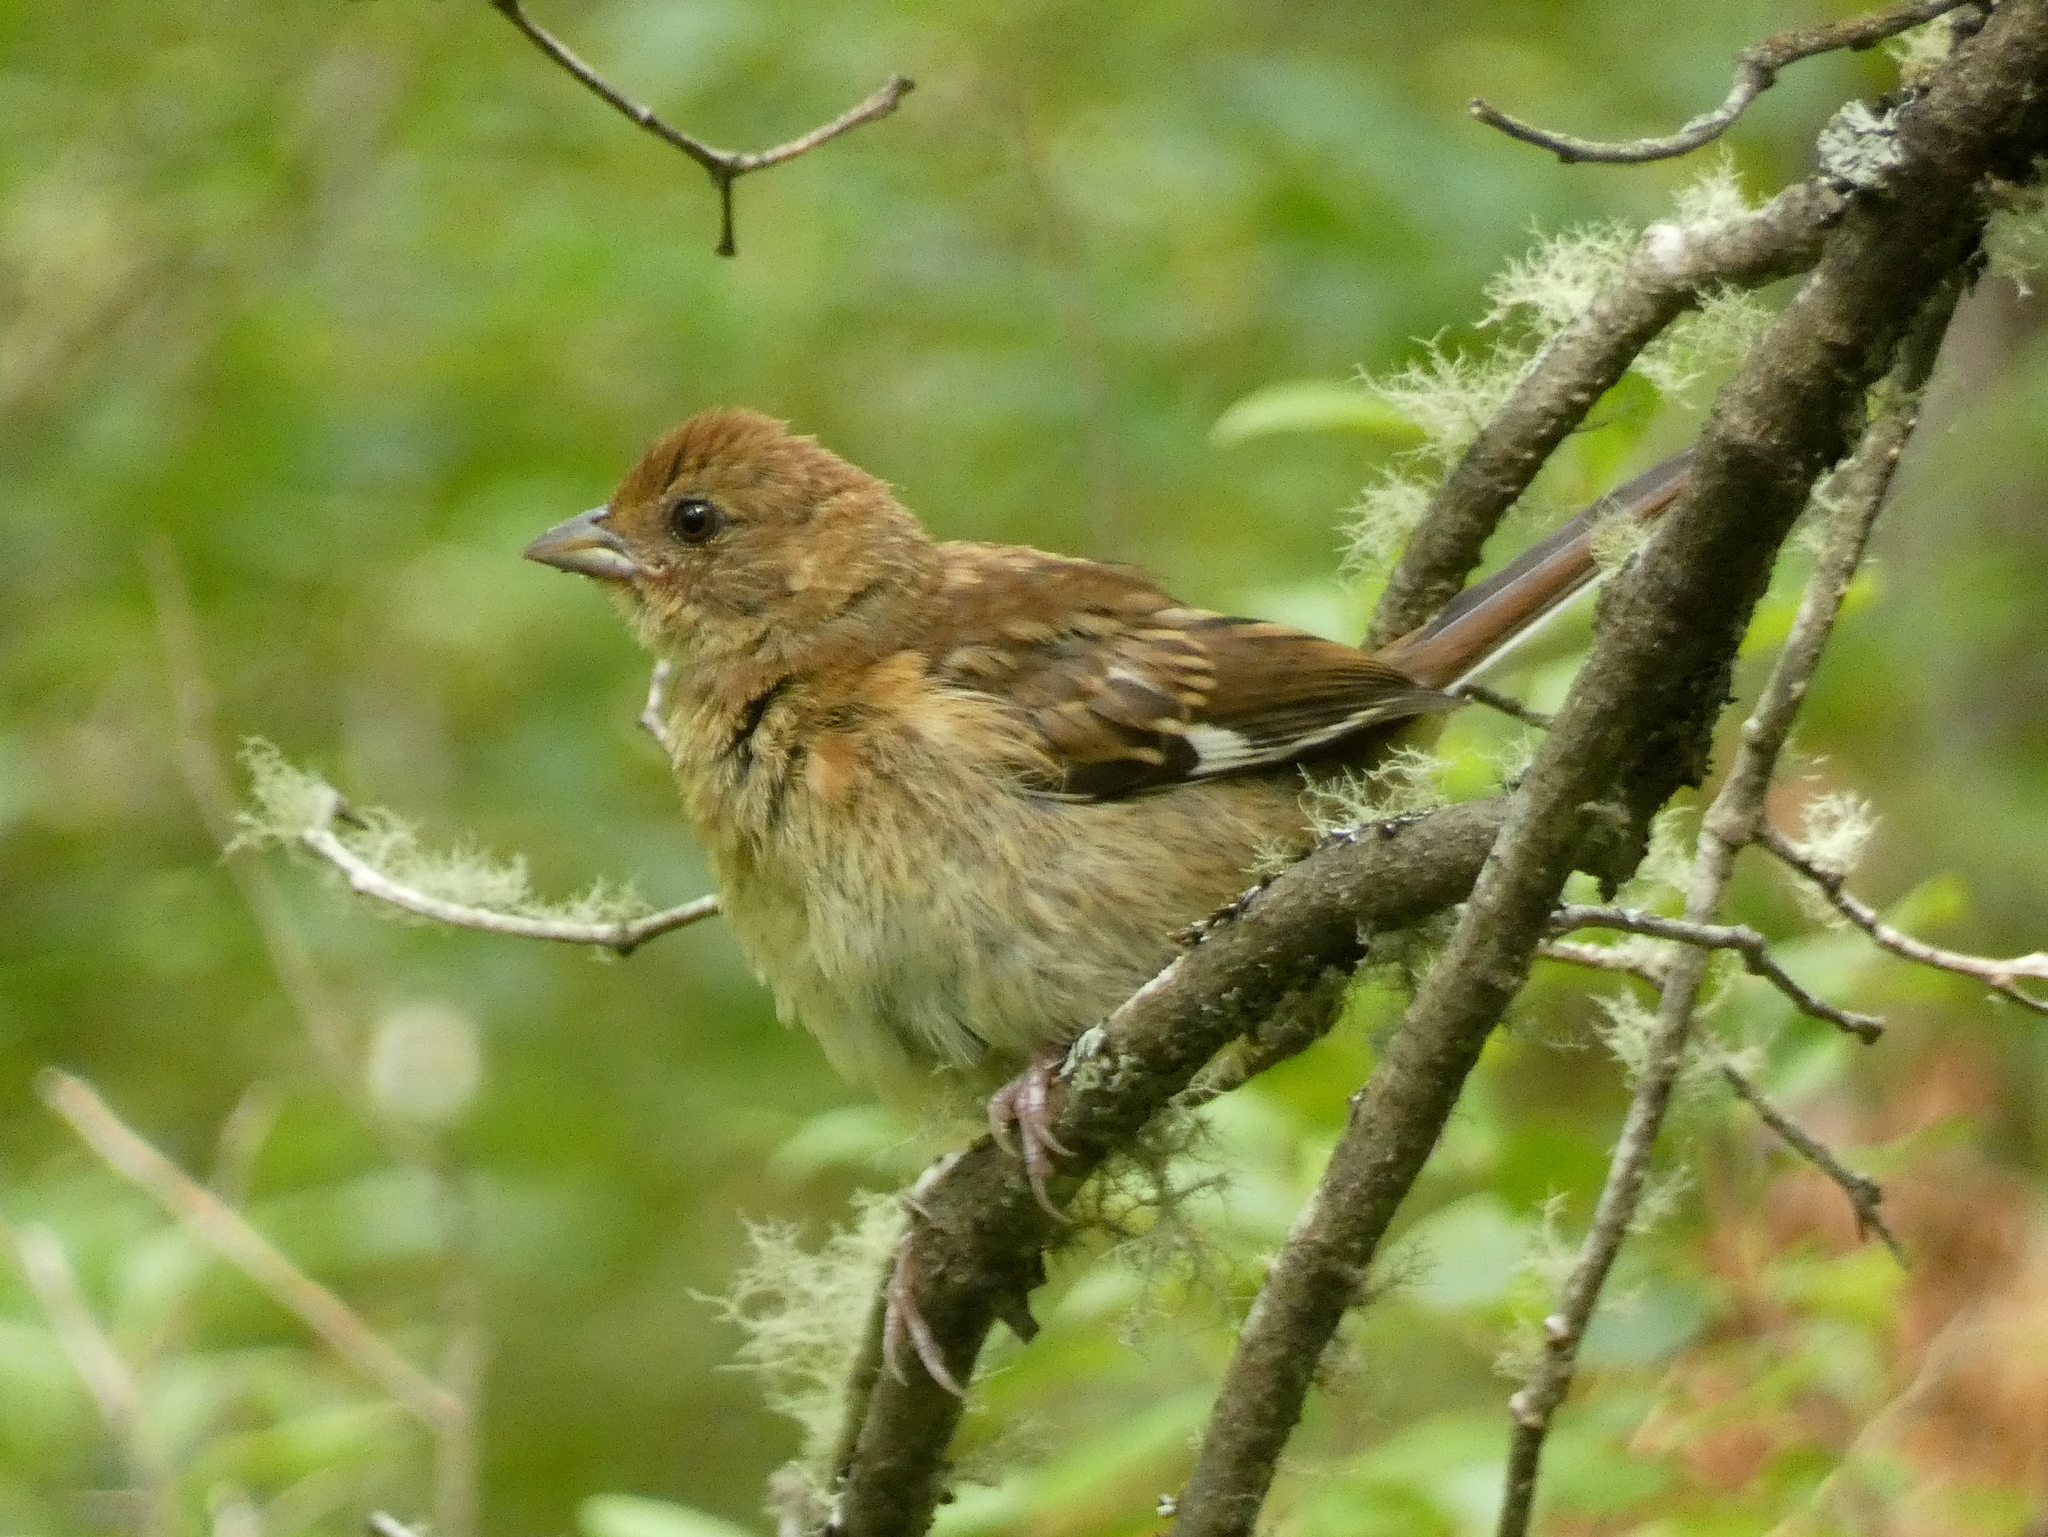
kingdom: Animalia
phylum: Chordata
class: Aves
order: Passeriformes
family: Passerellidae
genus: Pipilo
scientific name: Pipilo erythrophthalmus
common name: Eastern towhee
